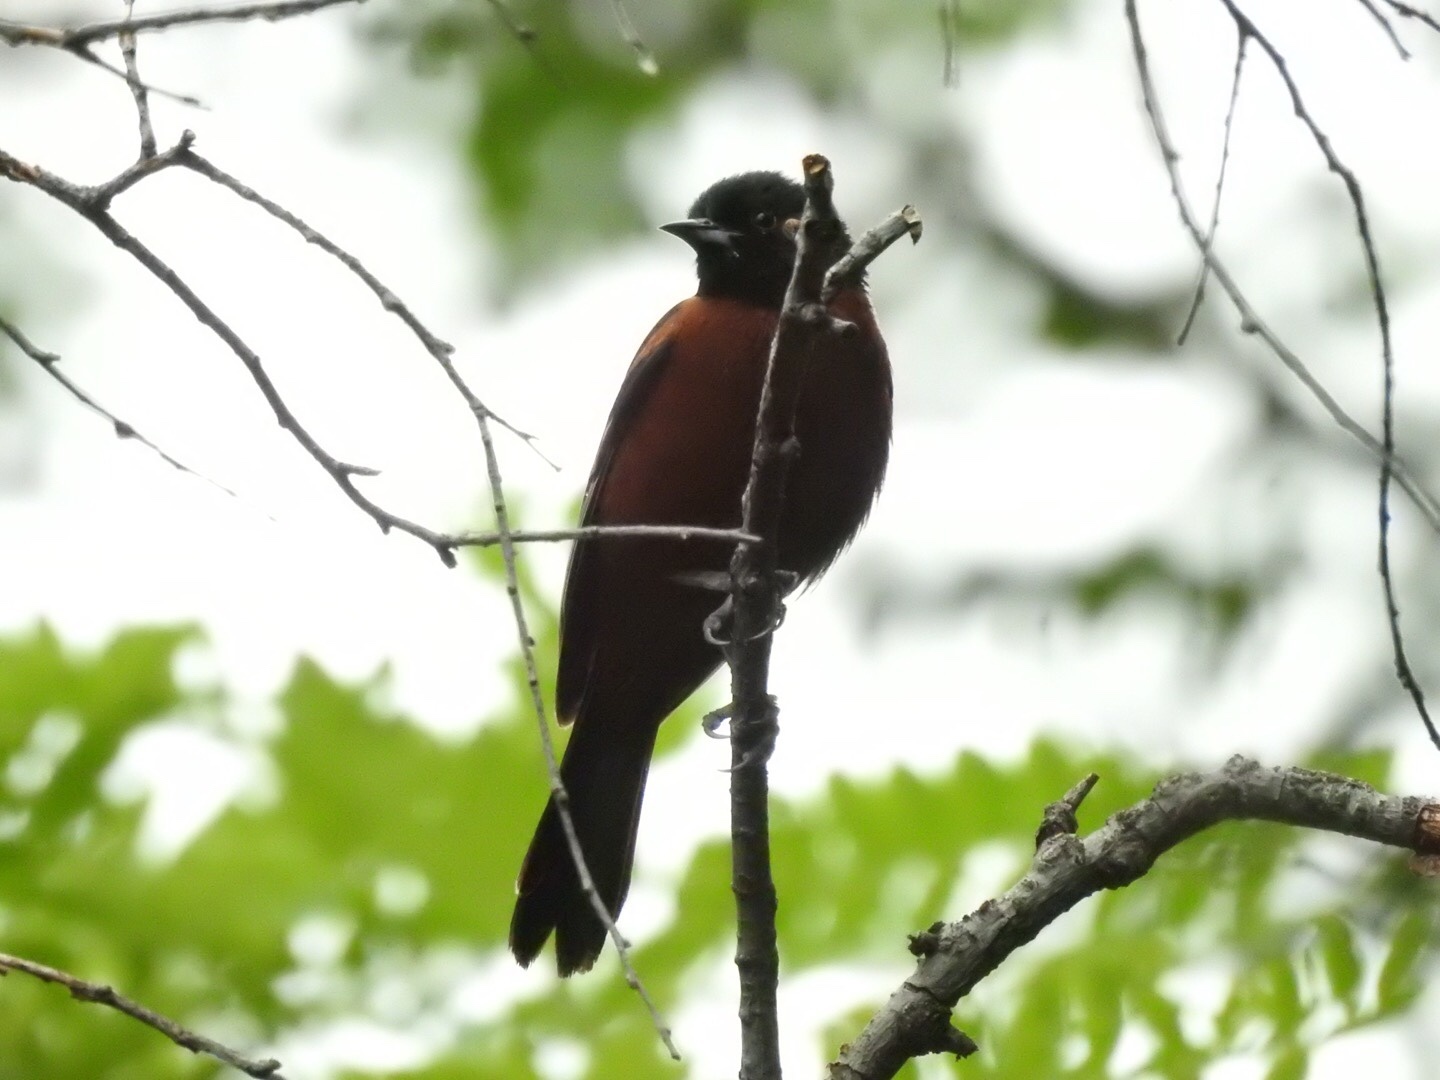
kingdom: Animalia
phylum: Chordata
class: Aves
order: Passeriformes
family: Icteridae
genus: Icterus
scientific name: Icterus spurius
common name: Orchard oriole
